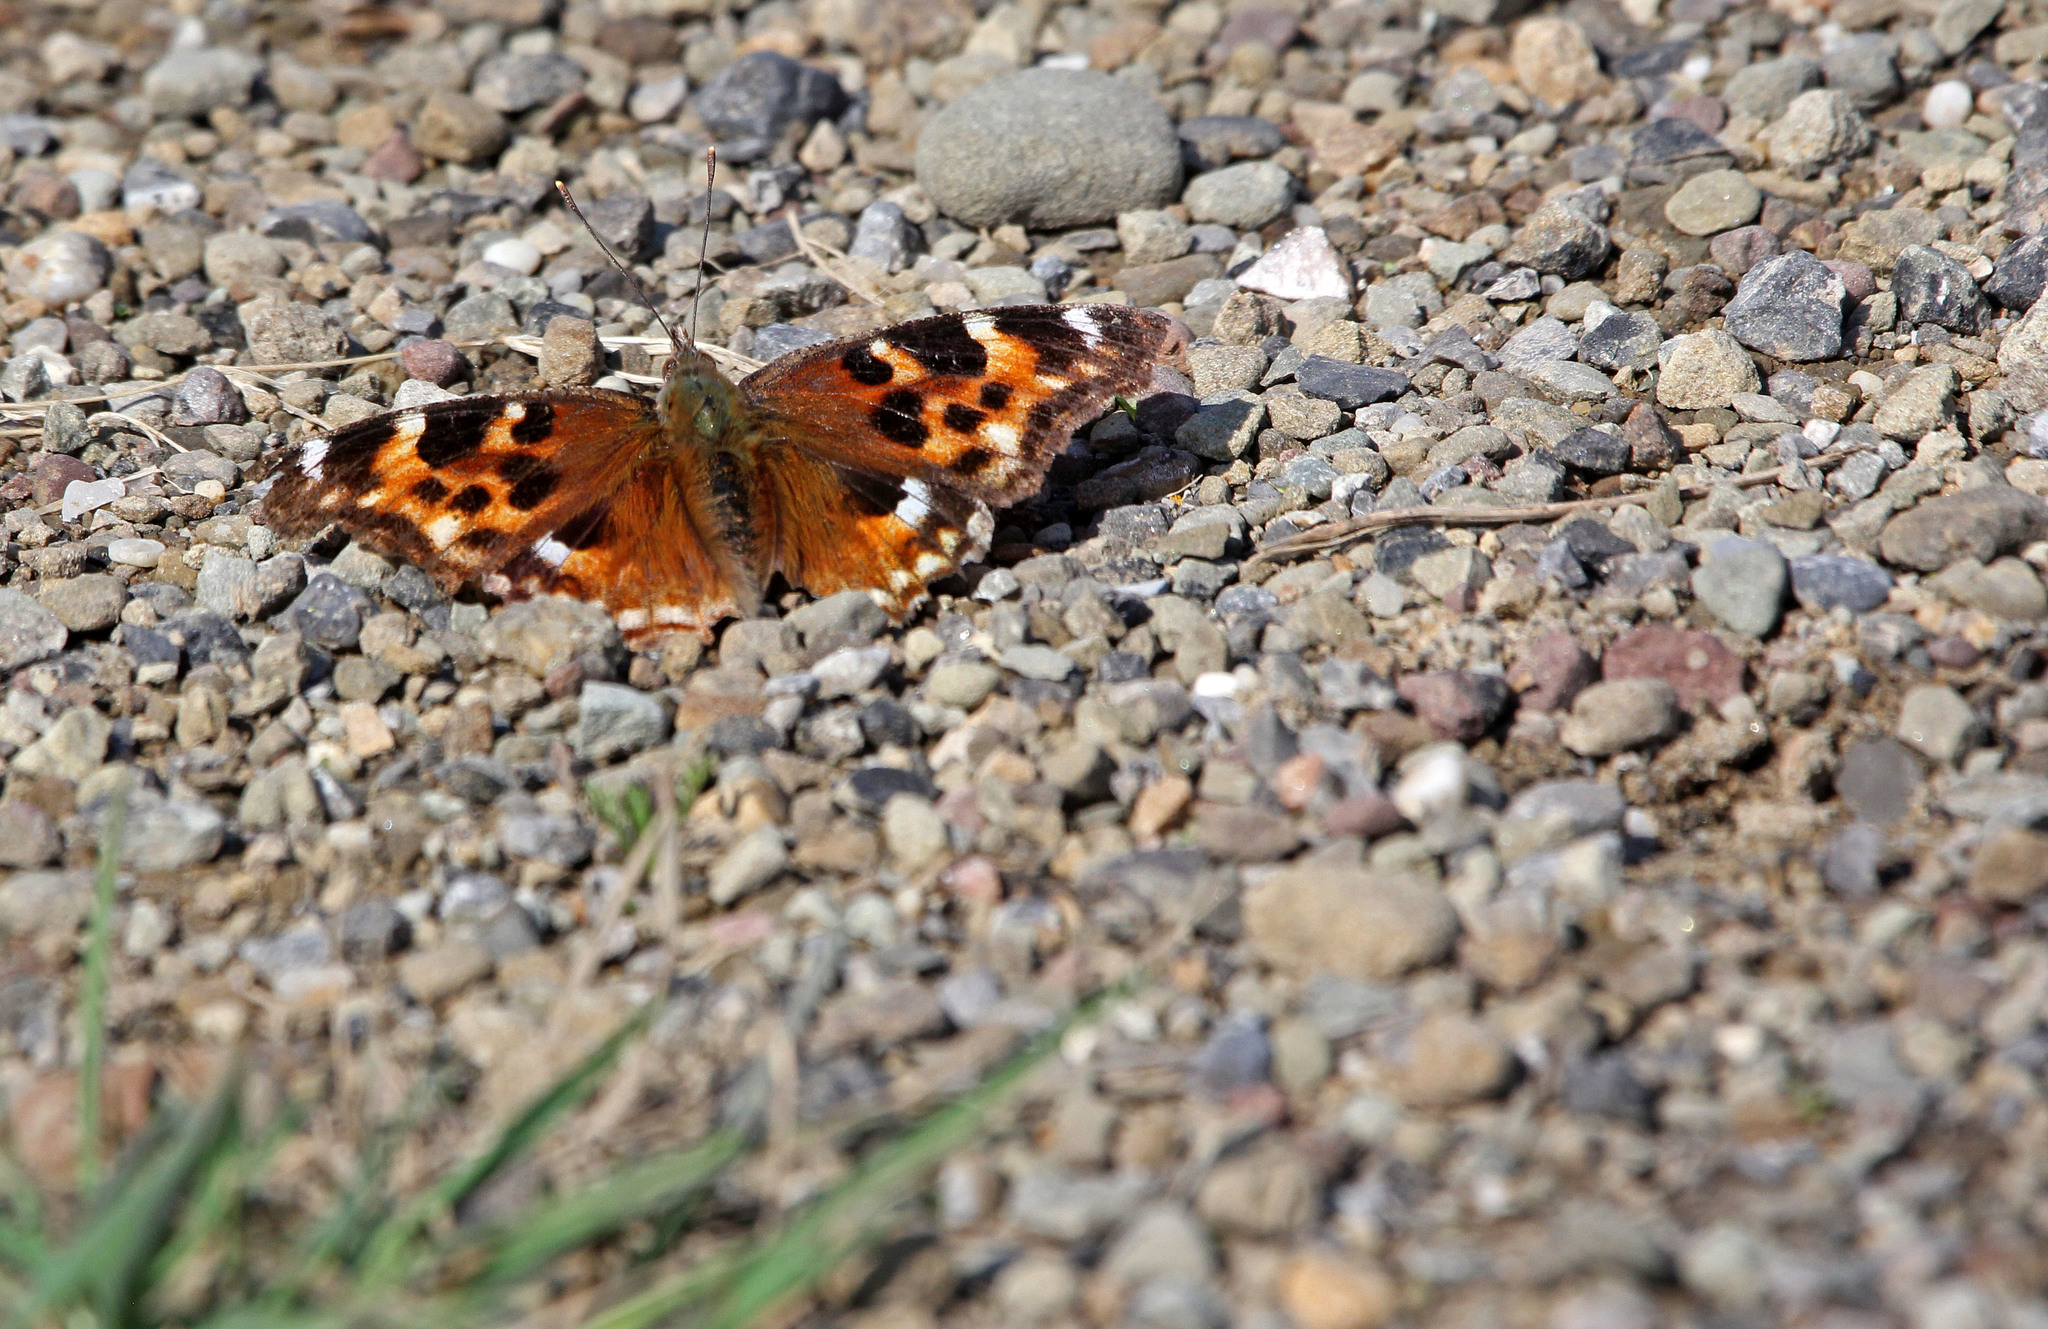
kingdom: Animalia
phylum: Arthropoda
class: Insecta
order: Lepidoptera
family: Nymphalidae
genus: Polygonia
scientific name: Polygonia vaualbum
